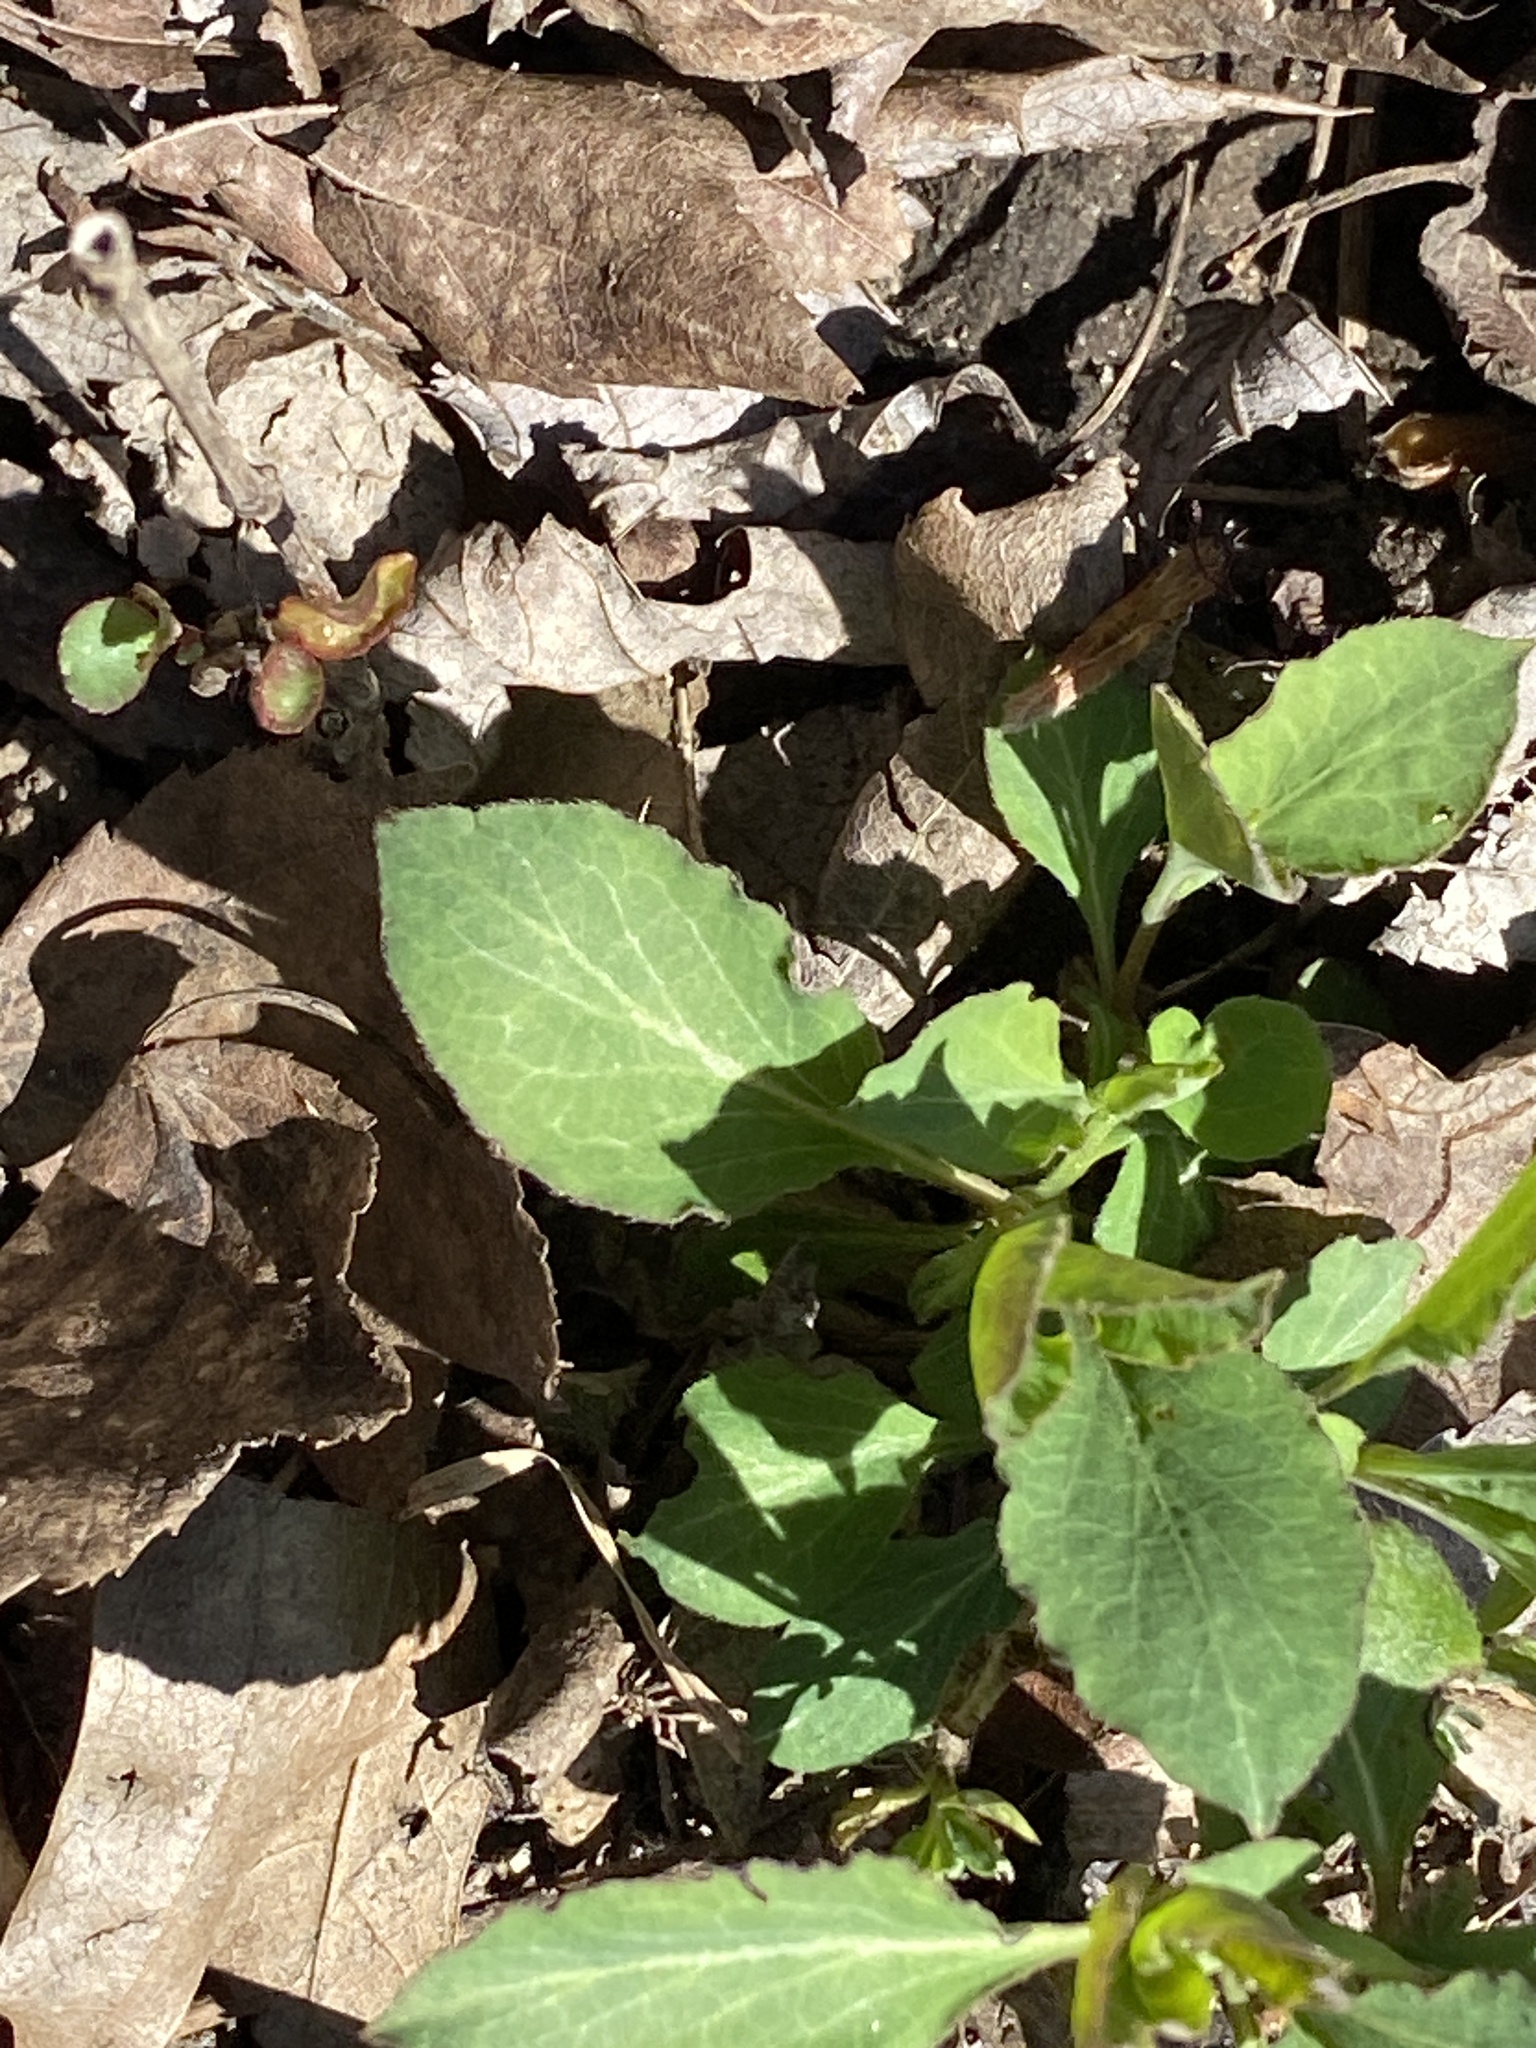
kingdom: Plantae
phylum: Tracheophyta
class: Magnoliopsida
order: Dipsacales
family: Caprifoliaceae
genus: Lonicera
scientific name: Lonicera japonica
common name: Japanese honeysuckle
